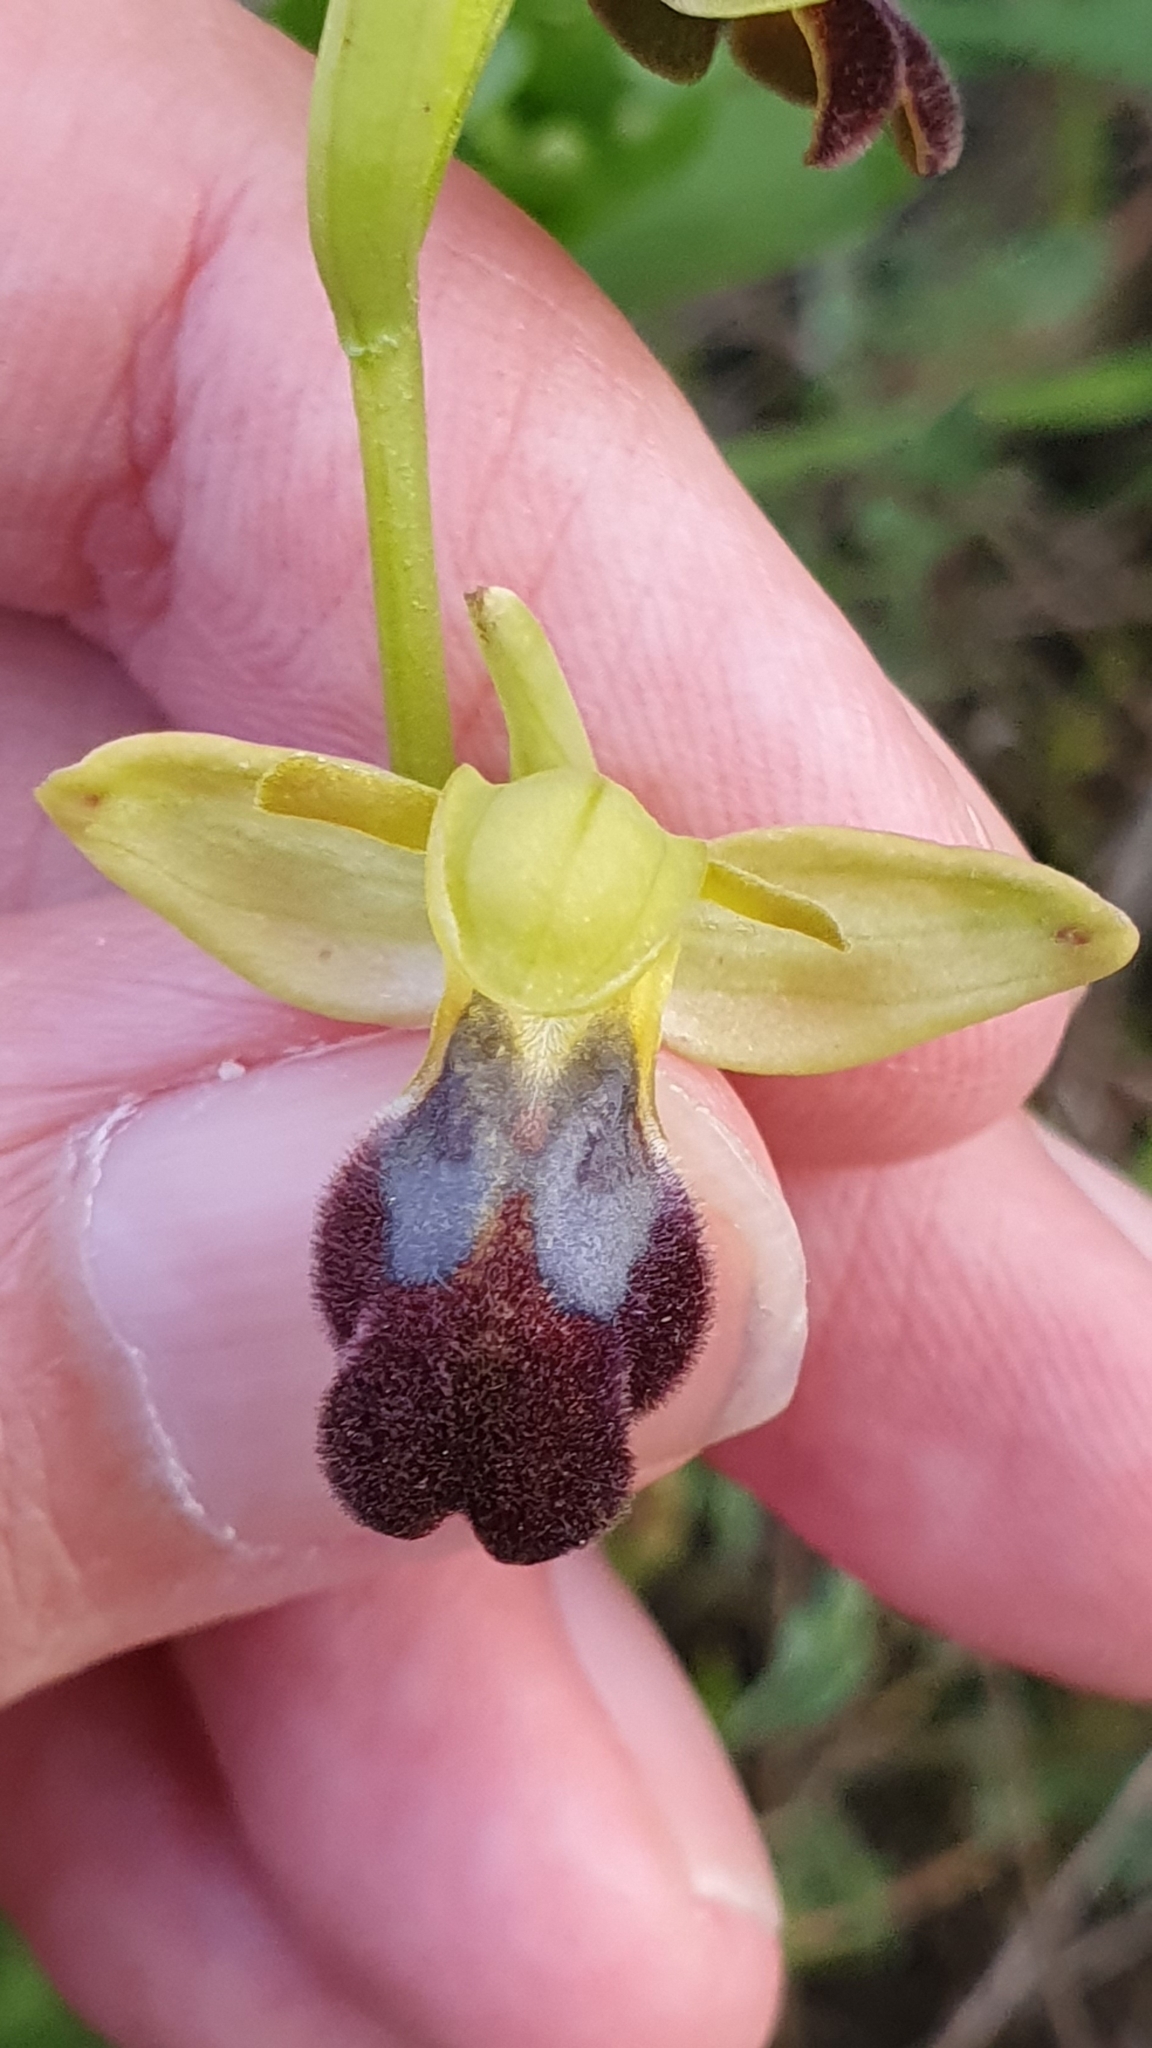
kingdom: Plantae
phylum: Tracheophyta
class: Liliopsida
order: Asparagales
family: Orchidaceae
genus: Ophrys
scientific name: Ophrys fusca
